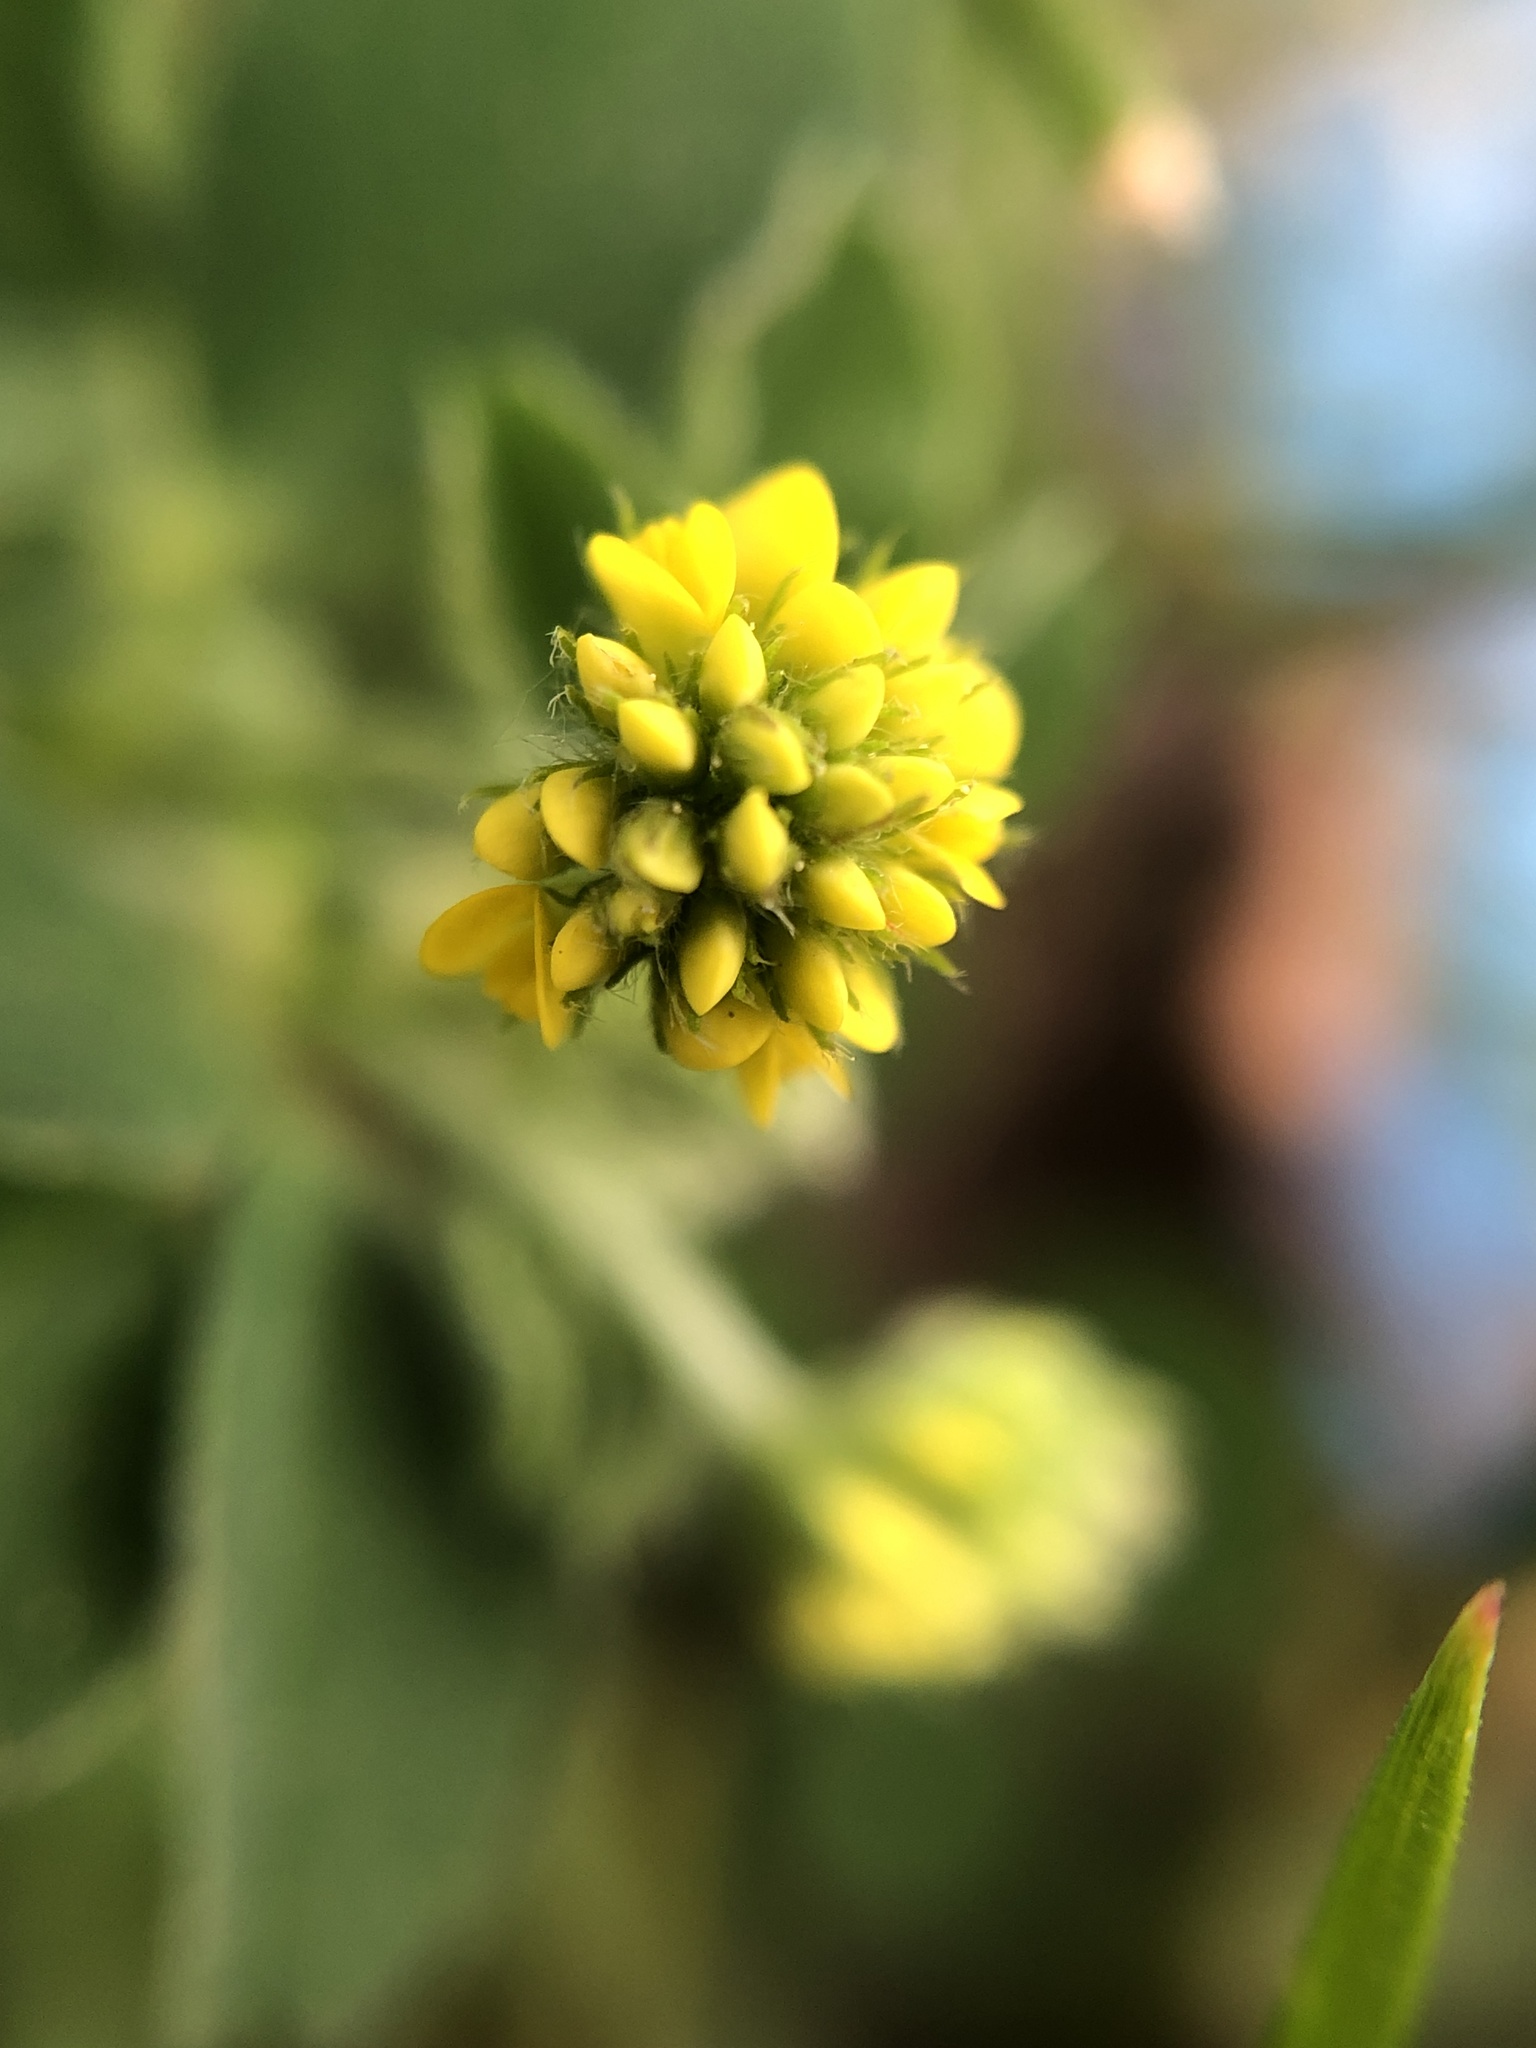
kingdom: Plantae
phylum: Tracheophyta
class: Magnoliopsida
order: Fabales
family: Fabaceae
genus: Medicago
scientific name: Medicago lupulina
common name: Black medick
